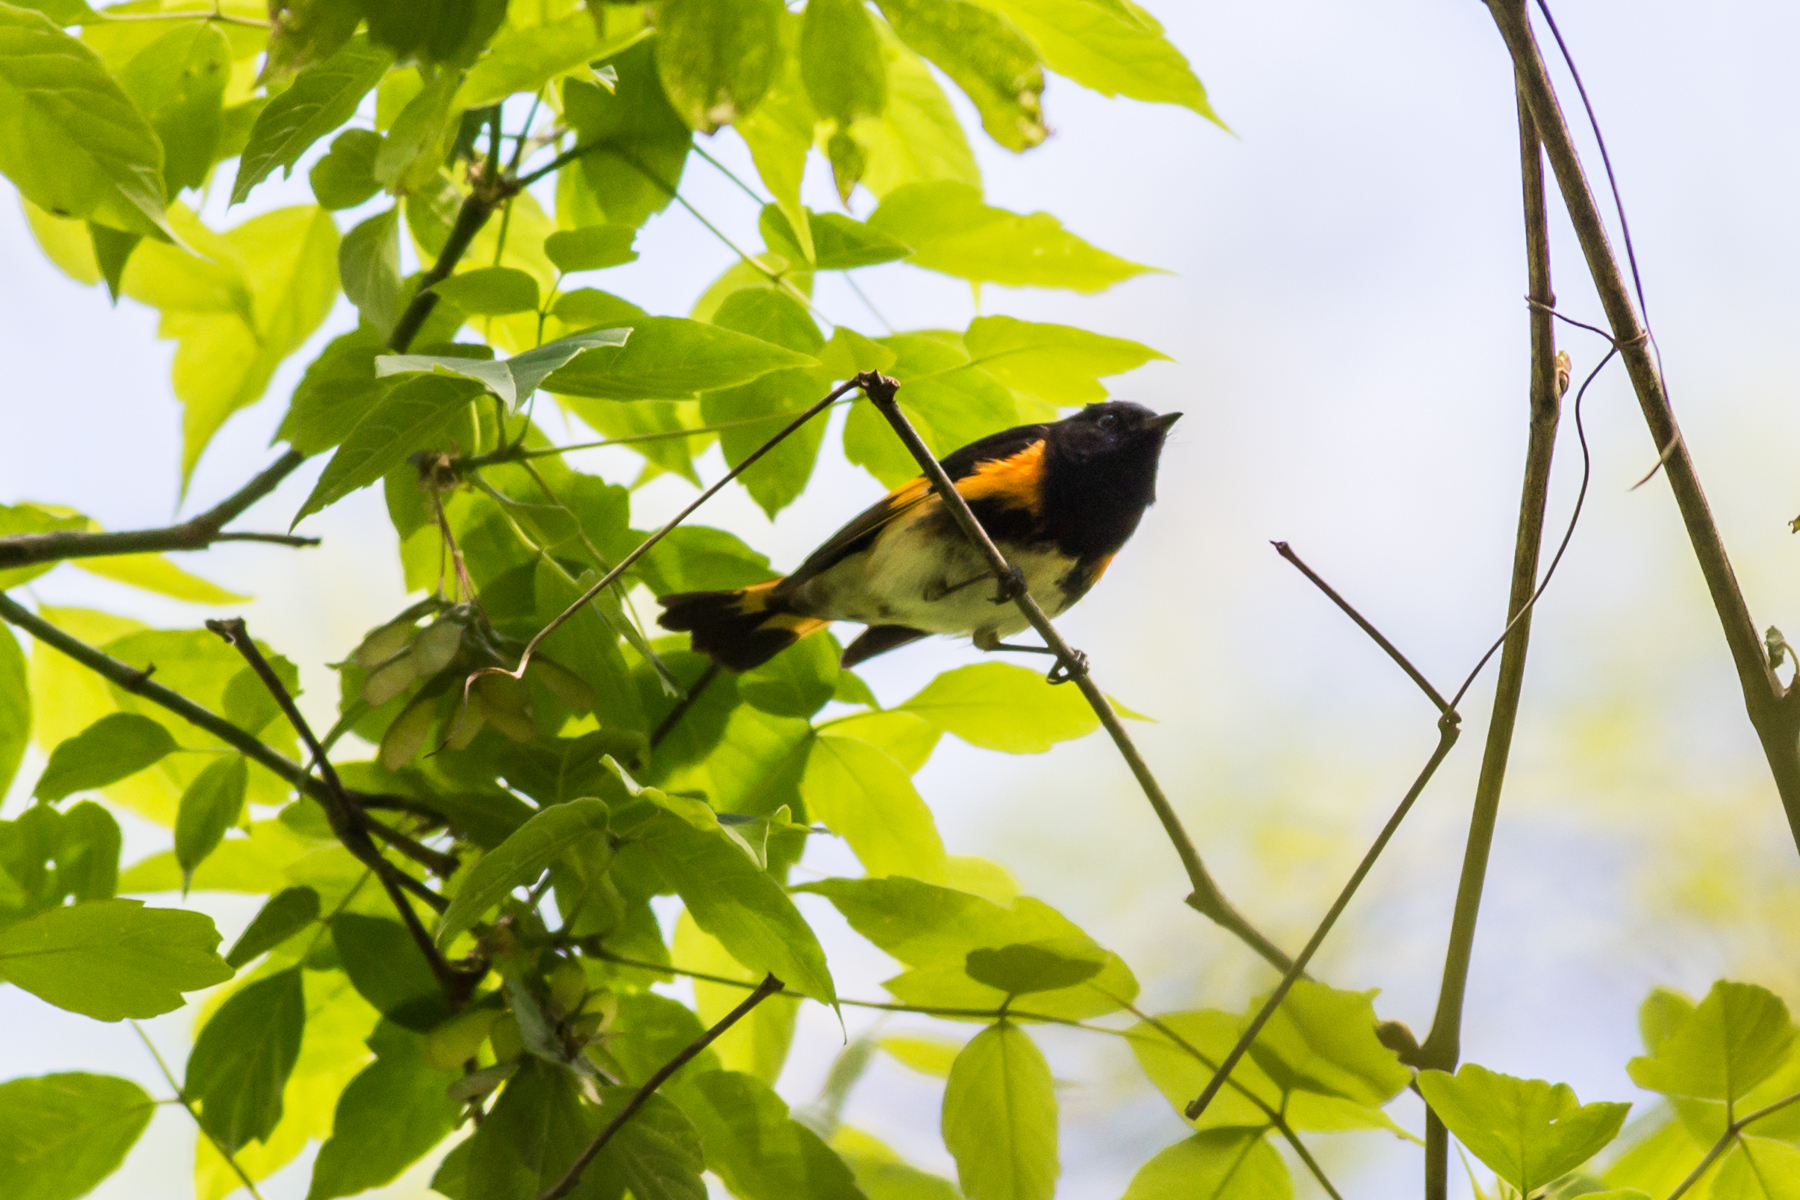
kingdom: Animalia
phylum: Chordata
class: Aves
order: Passeriformes
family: Parulidae
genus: Setophaga
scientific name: Setophaga ruticilla
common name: American redstart
